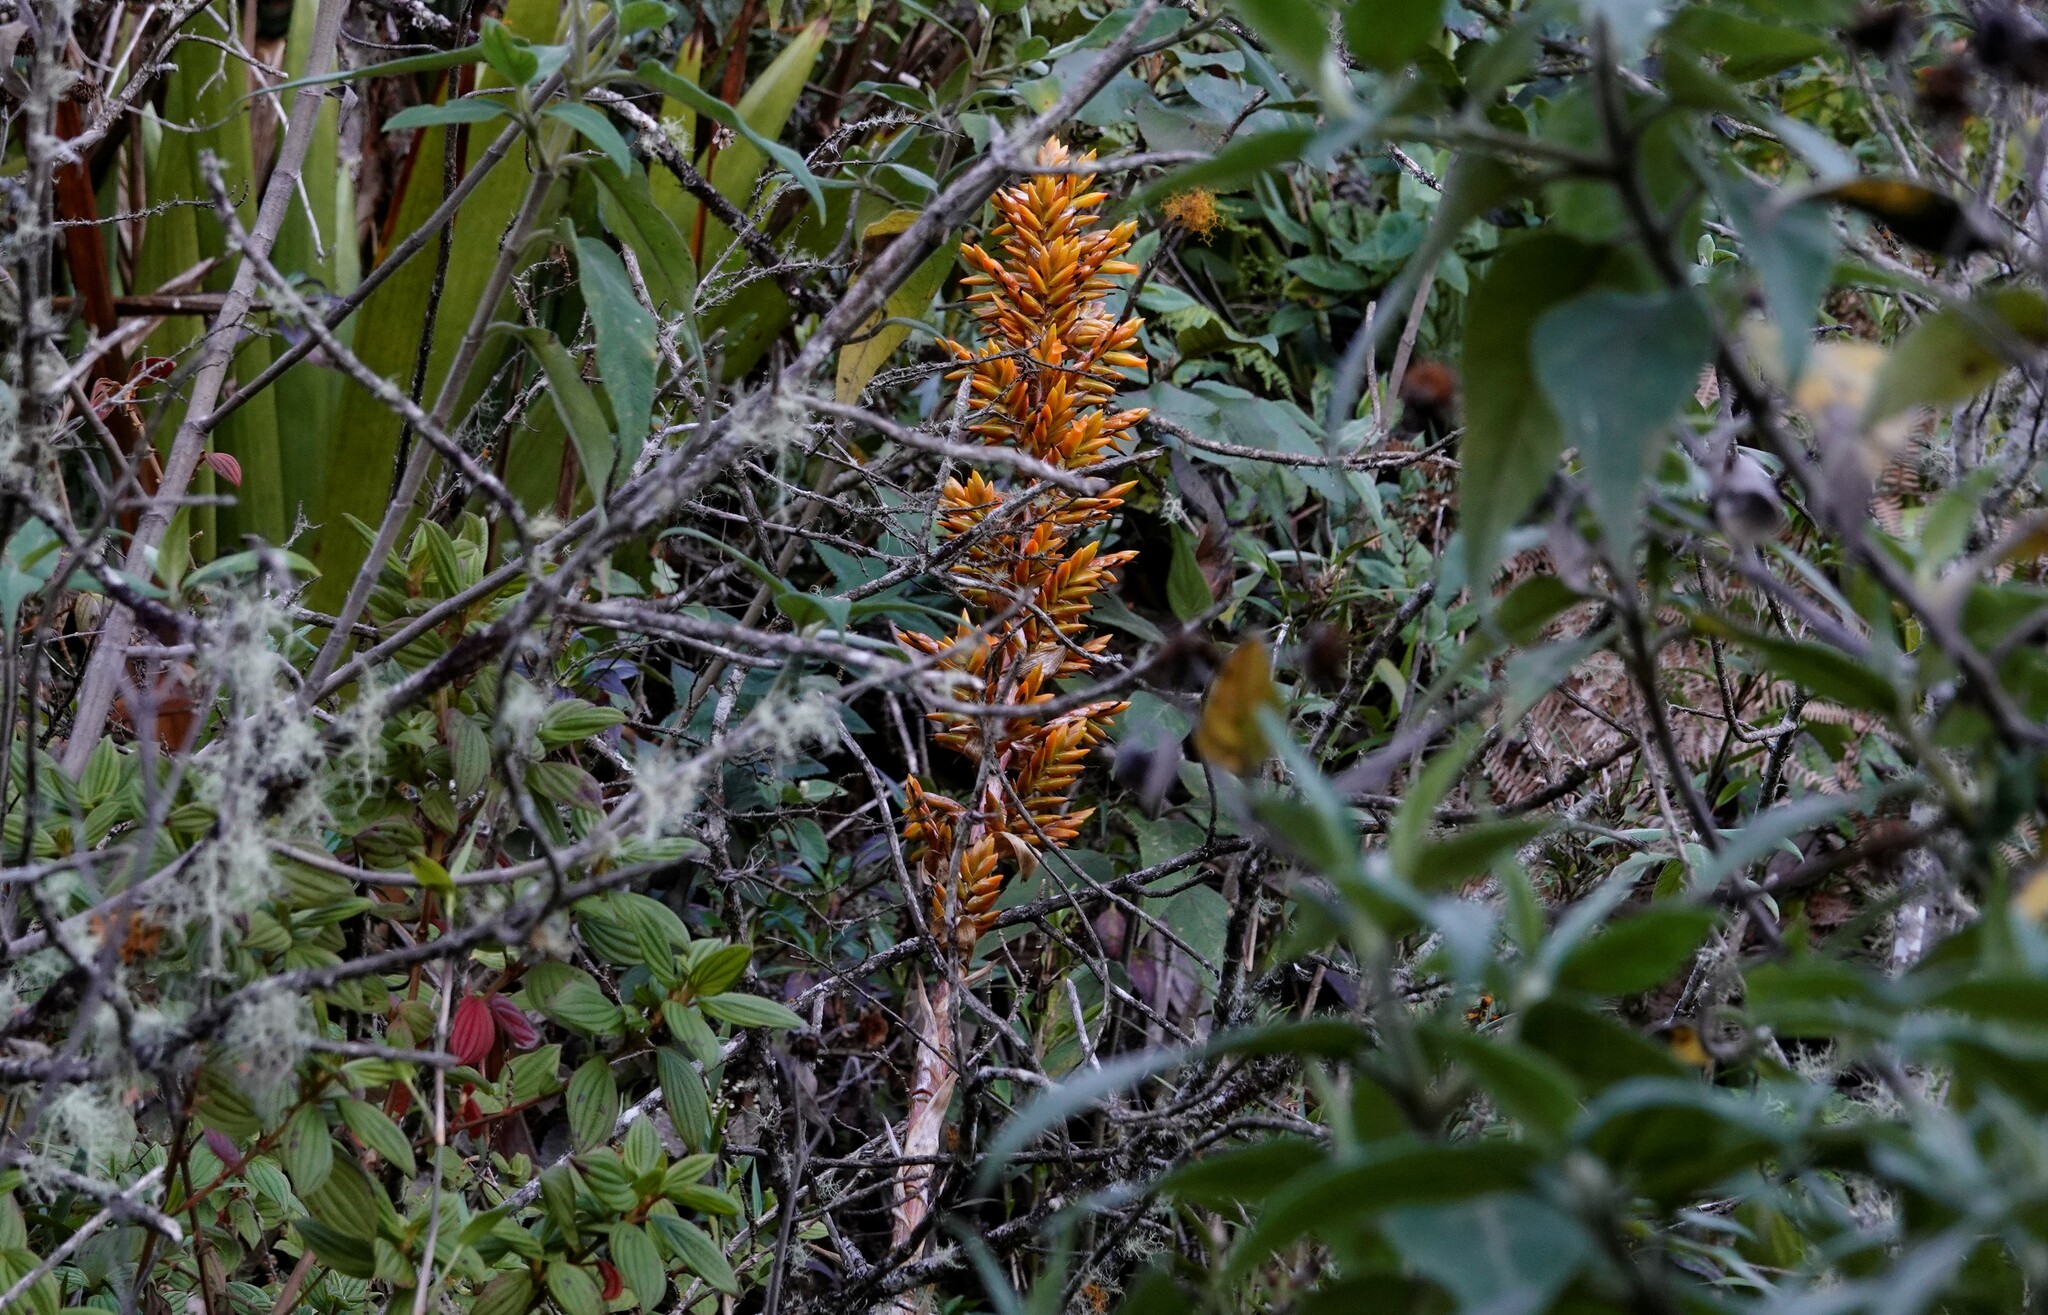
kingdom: Plantae
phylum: Tracheophyta
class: Liliopsida
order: Poales
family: Bromeliaceae
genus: Cipuropsis
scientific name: Cipuropsis hospitalis
